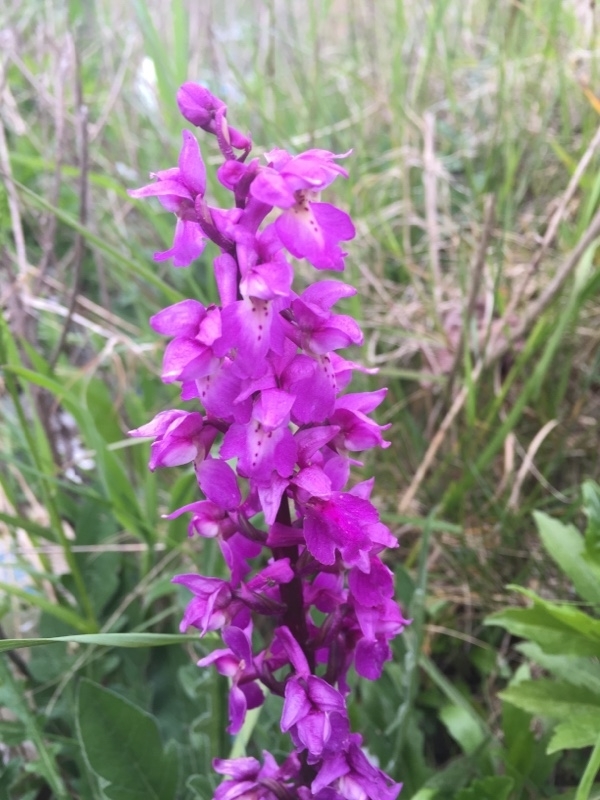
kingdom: Plantae
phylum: Tracheophyta
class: Liliopsida
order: Asparagales
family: Orchidaceae
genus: Orchis
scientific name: Orchis mascula
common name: Early-purple orchid
